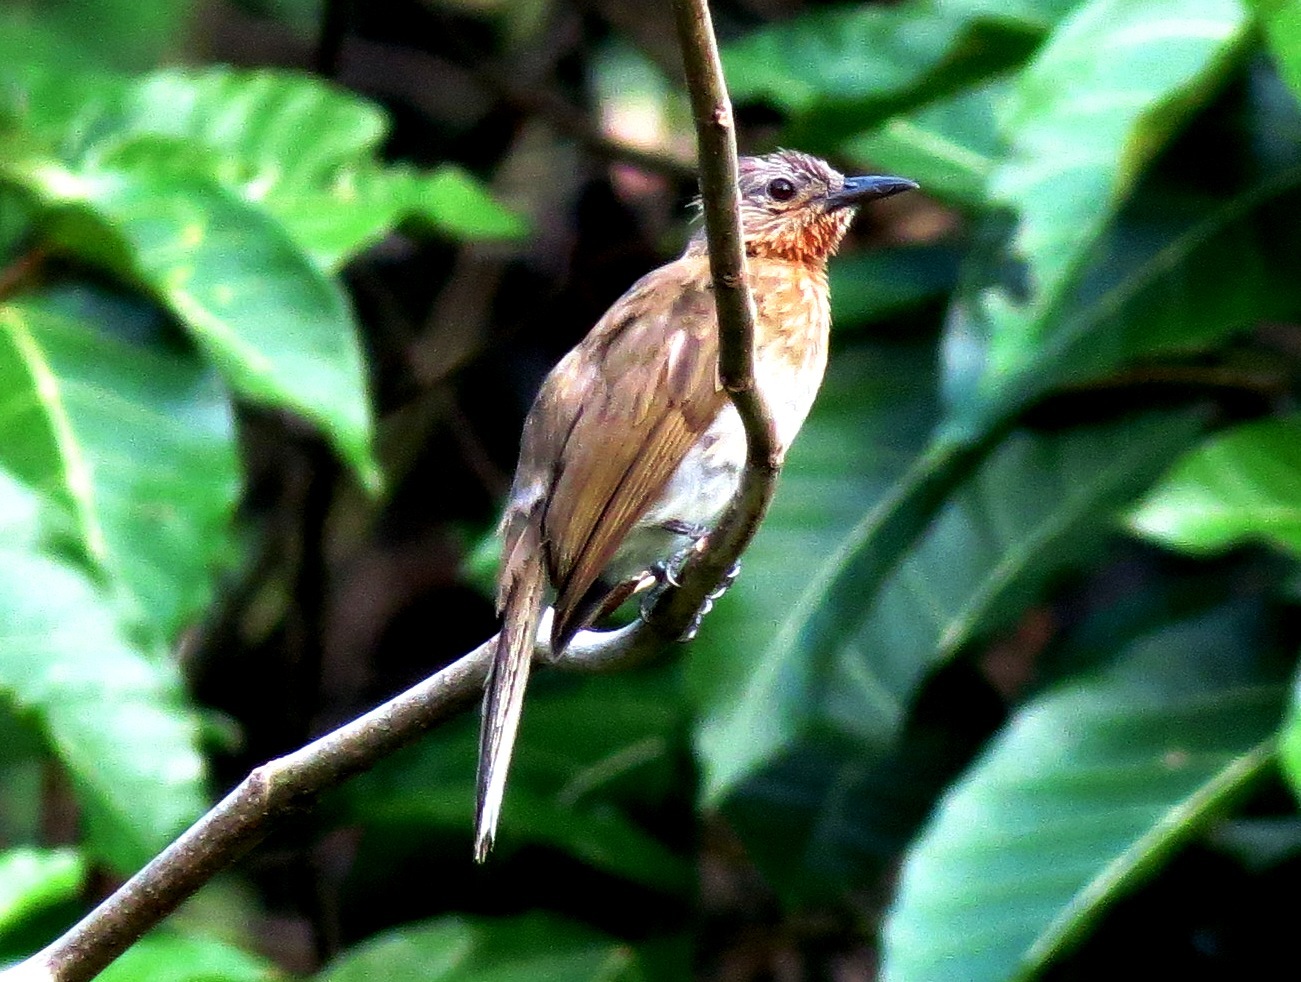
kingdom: Animalia
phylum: Chordata
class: Aves
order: Passeriformes
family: Pycnonotidae
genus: Hypsipetes
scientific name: Hypsipetes philippinus
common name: Philippine bulbul
